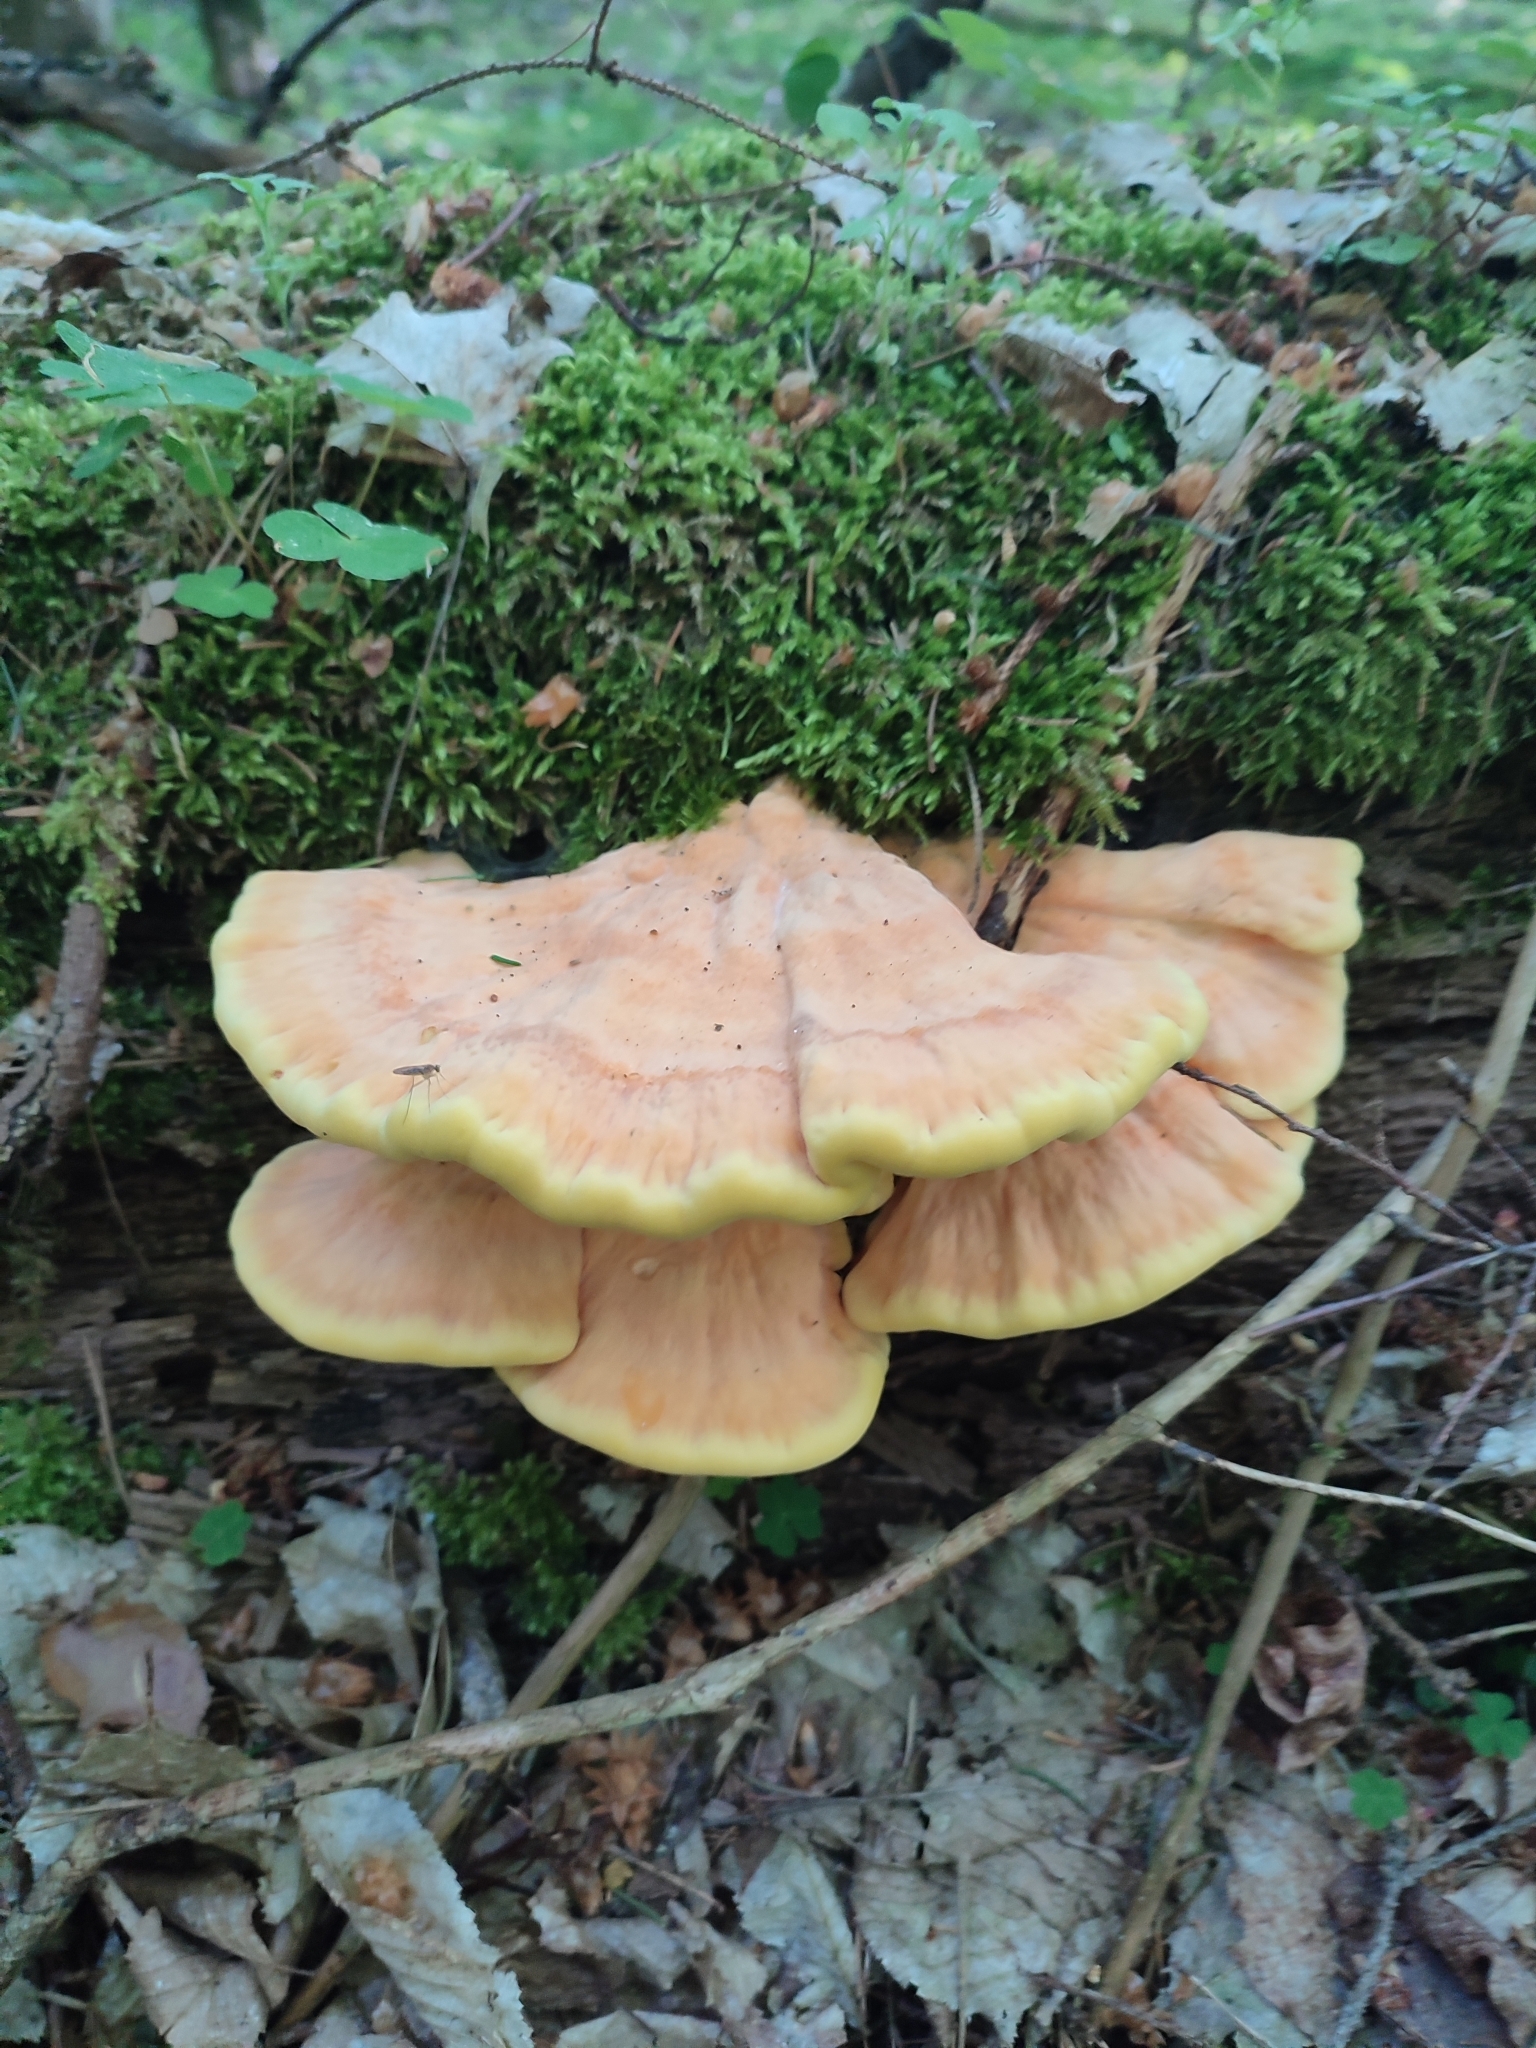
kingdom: Fungi
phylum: Basidiomycota
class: Agaricomycetes
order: Polyporales
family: Laetiporaceae
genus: Laetiporus
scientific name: Laetiporus sulphureus
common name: Chicken of the woods
